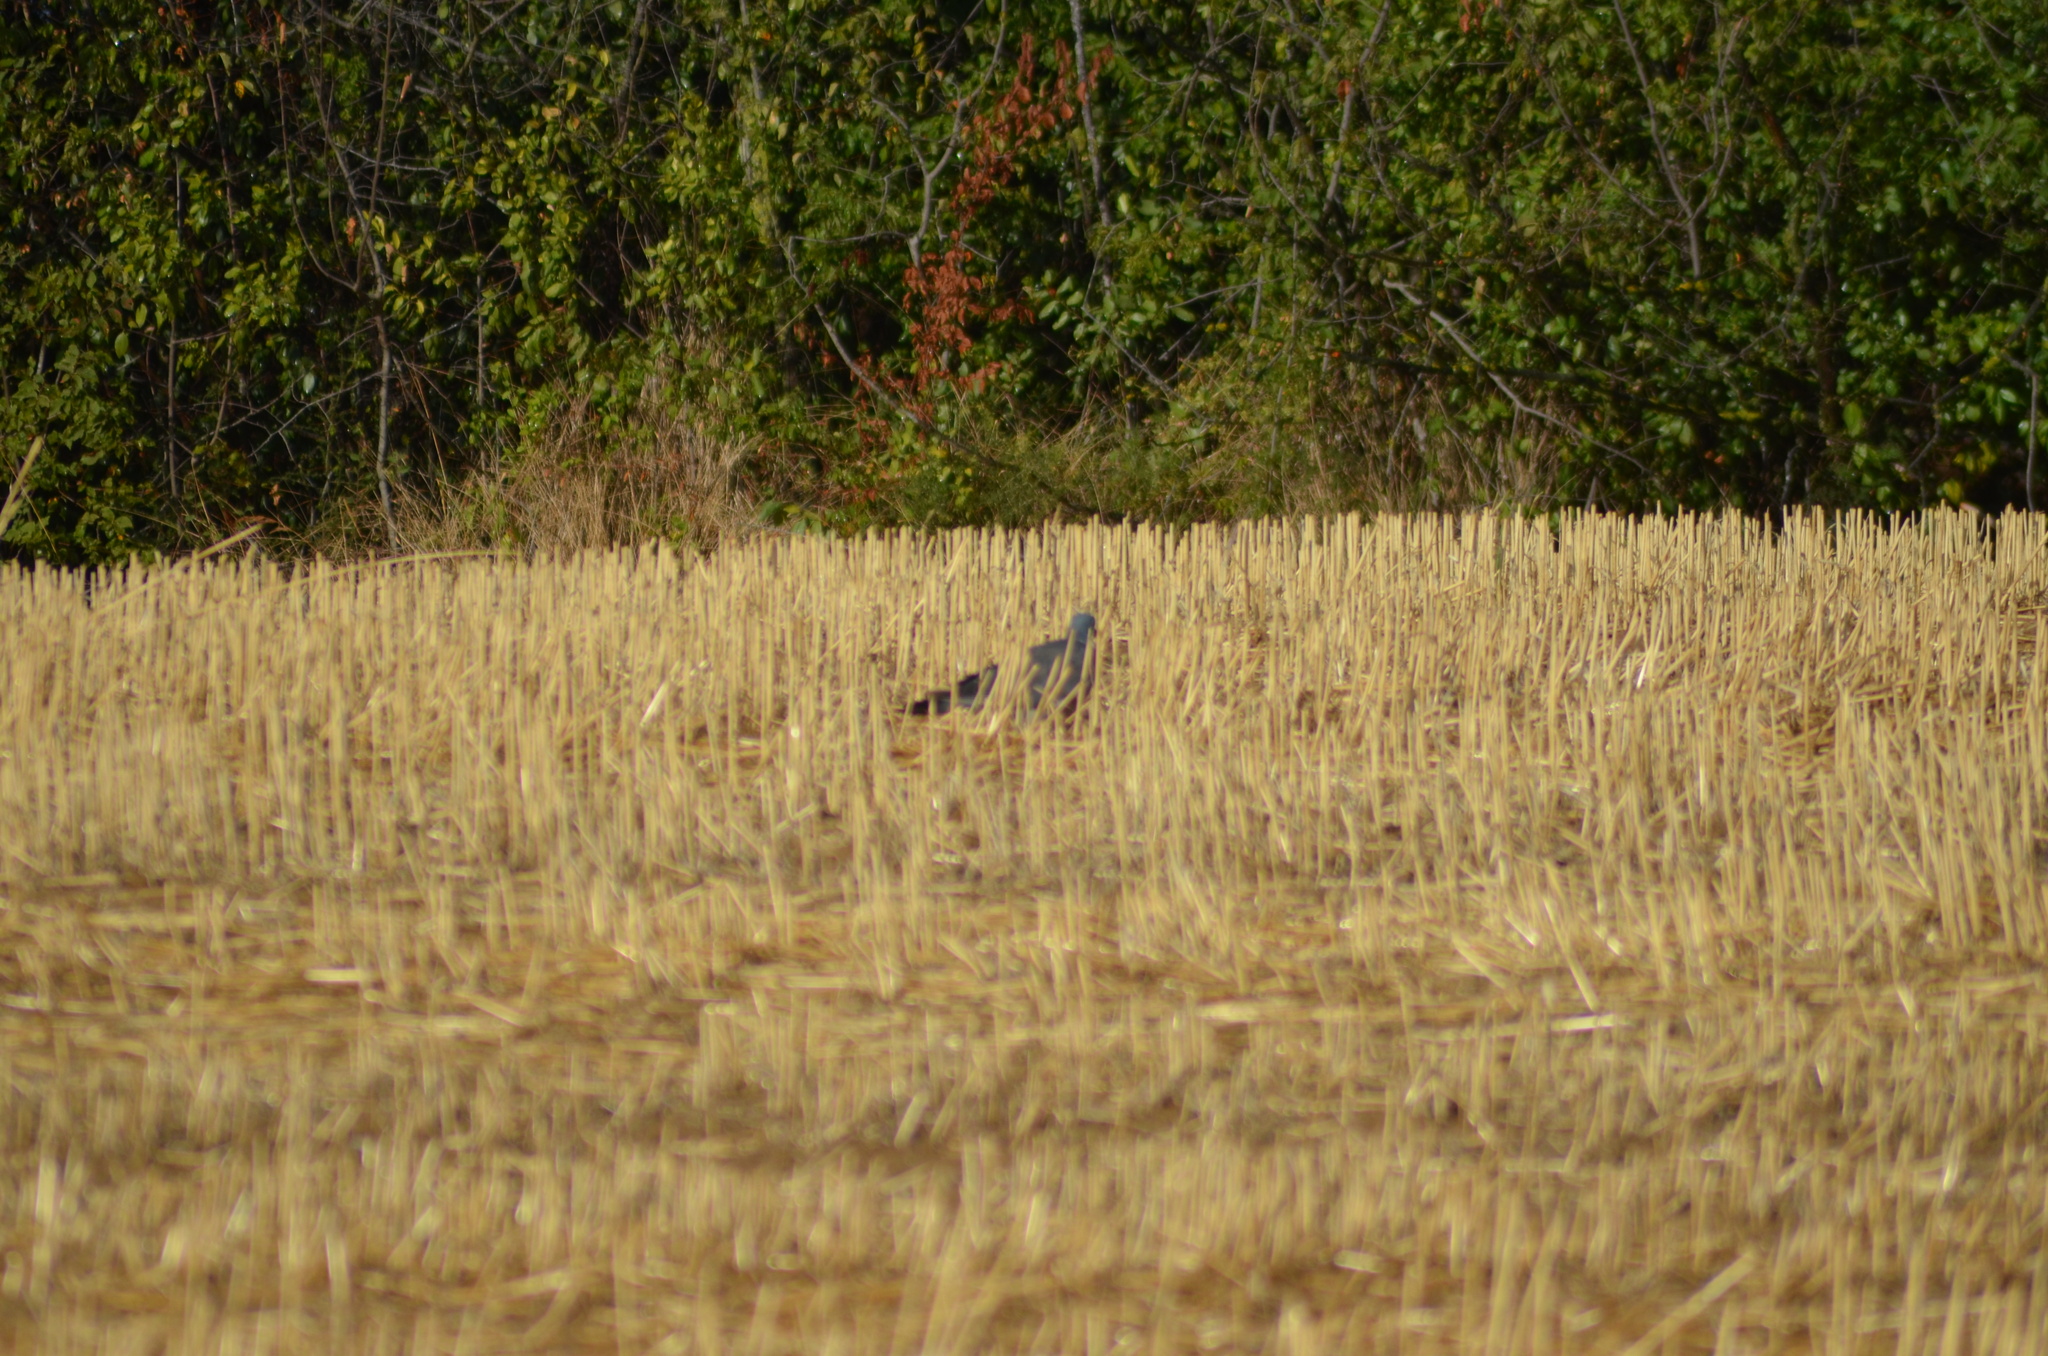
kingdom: Animalia
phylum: Chordata
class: Aves
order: Columbiformes
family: Columbidae
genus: Columba
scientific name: Columba palumbus
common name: Common wood pigeon
